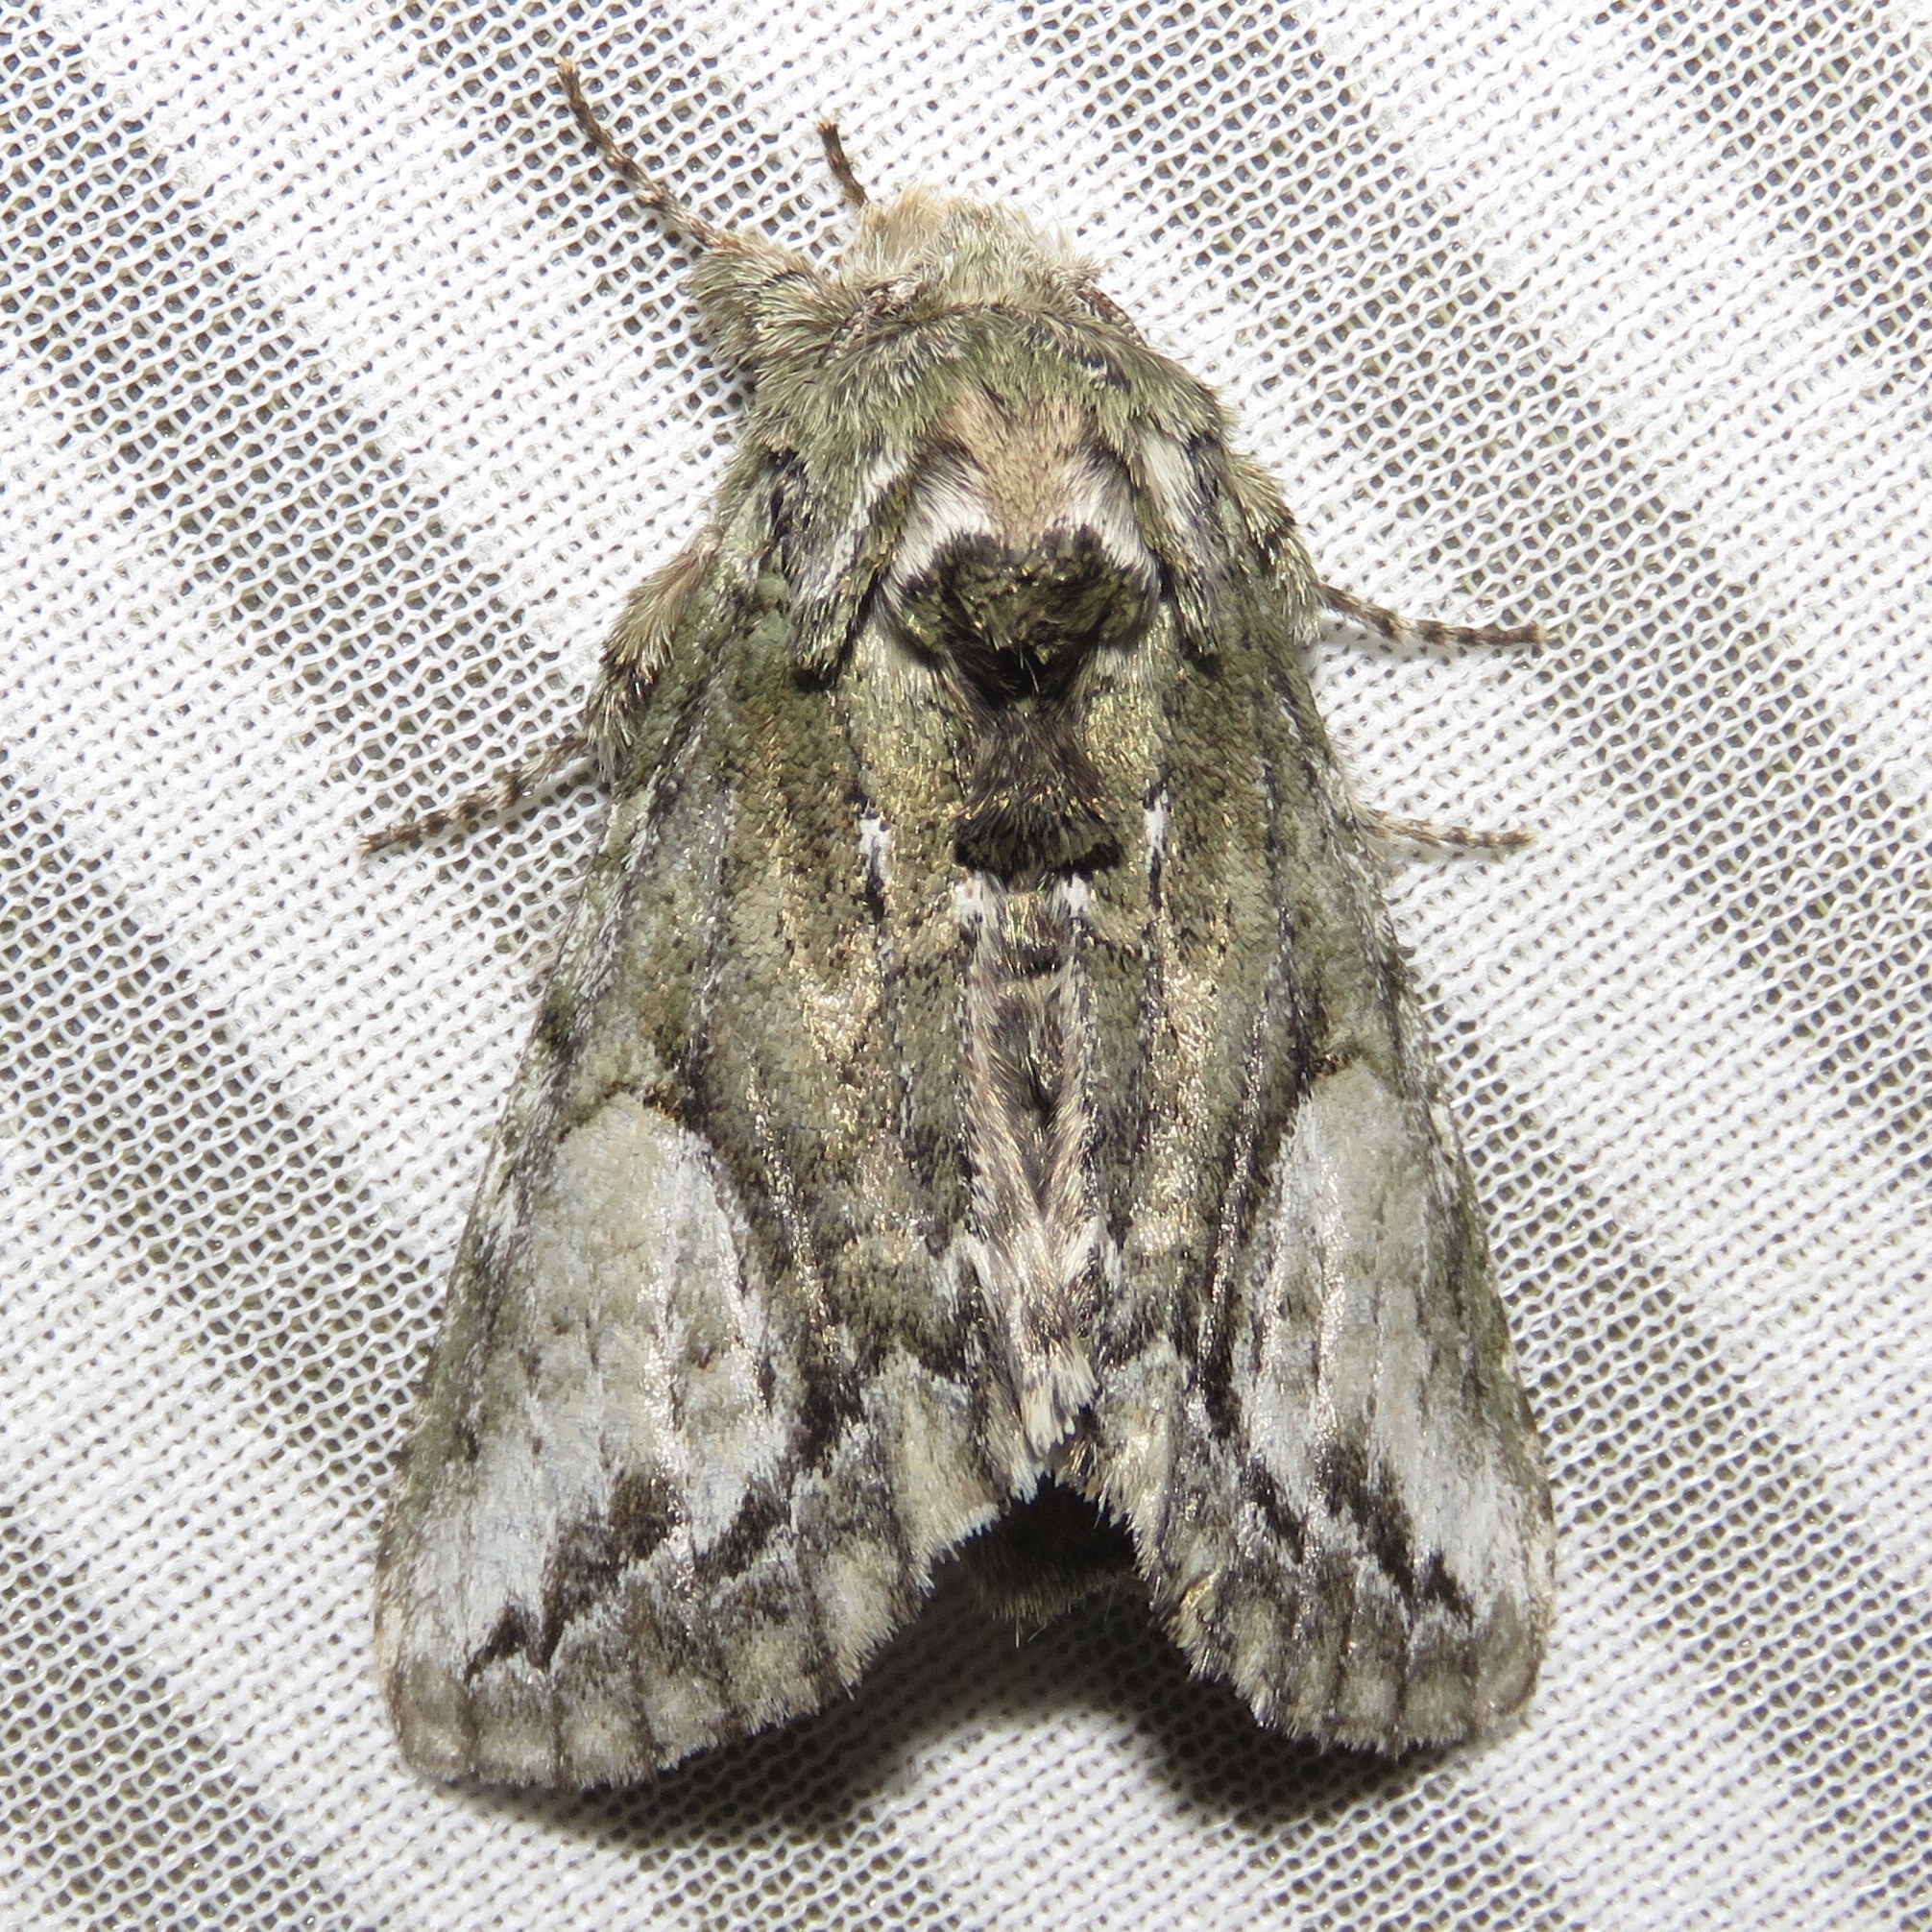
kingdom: Animalia
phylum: Arthropoda
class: Insecta
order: Lepidoptera
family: Notodontidae
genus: Heterocampa
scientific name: Heterocampa
